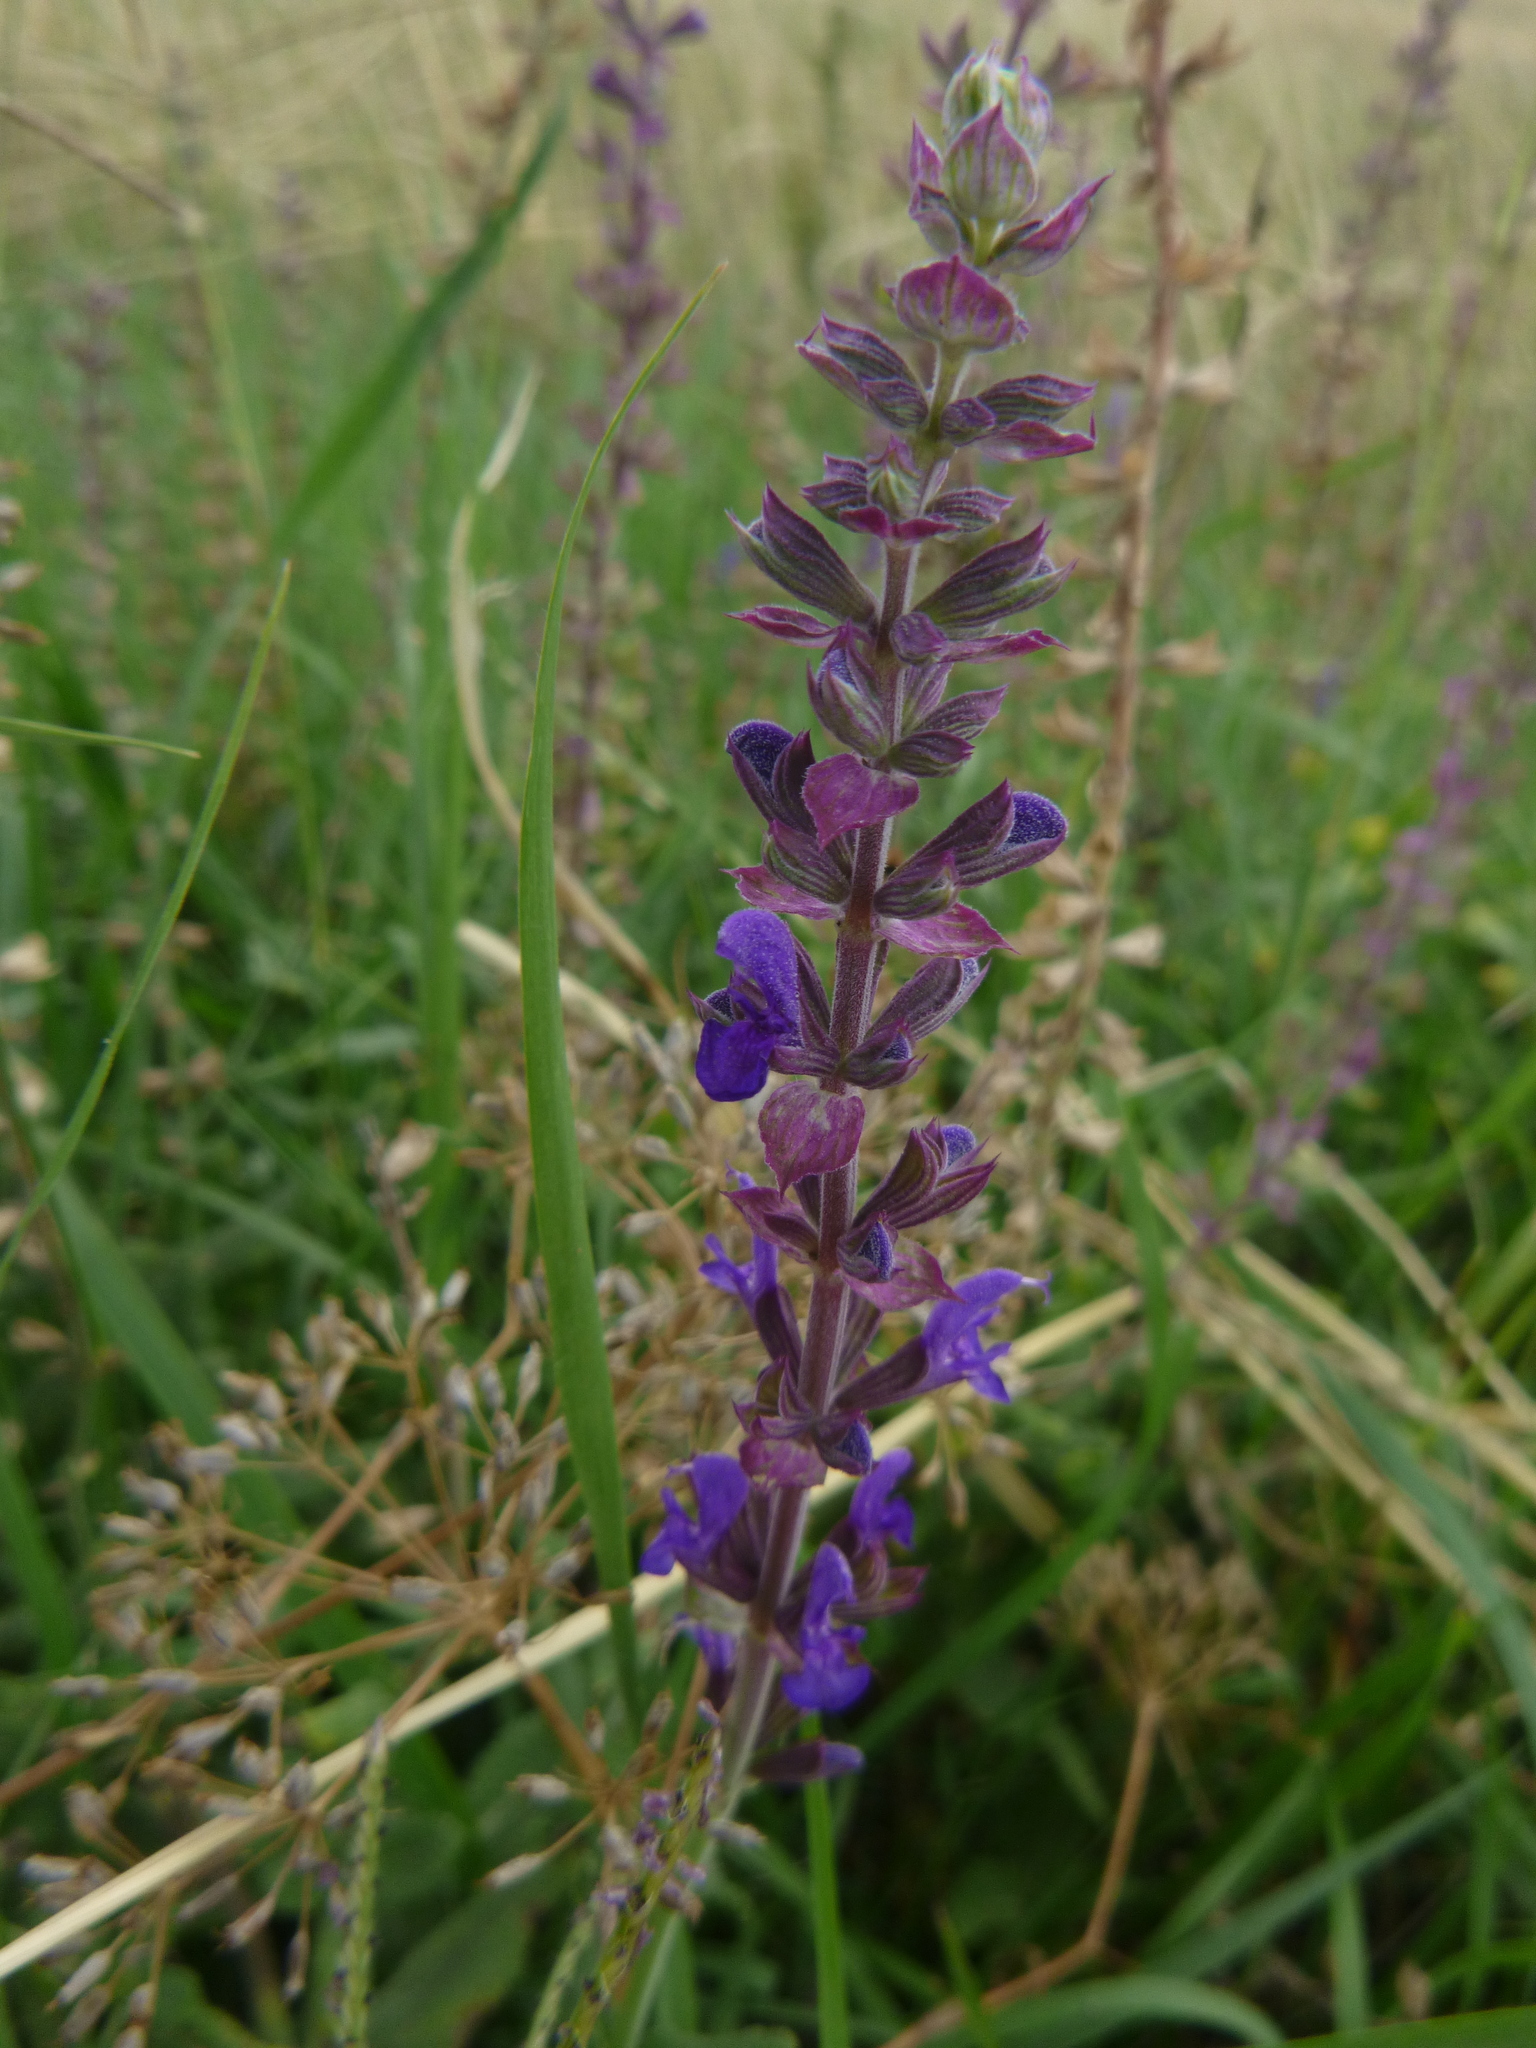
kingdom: Plantae
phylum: Tracheophyta
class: Magnoliopsida
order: Lamiales
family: Lamiaceae
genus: Salvia
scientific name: Salvia nemorosa
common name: Balkan clary
